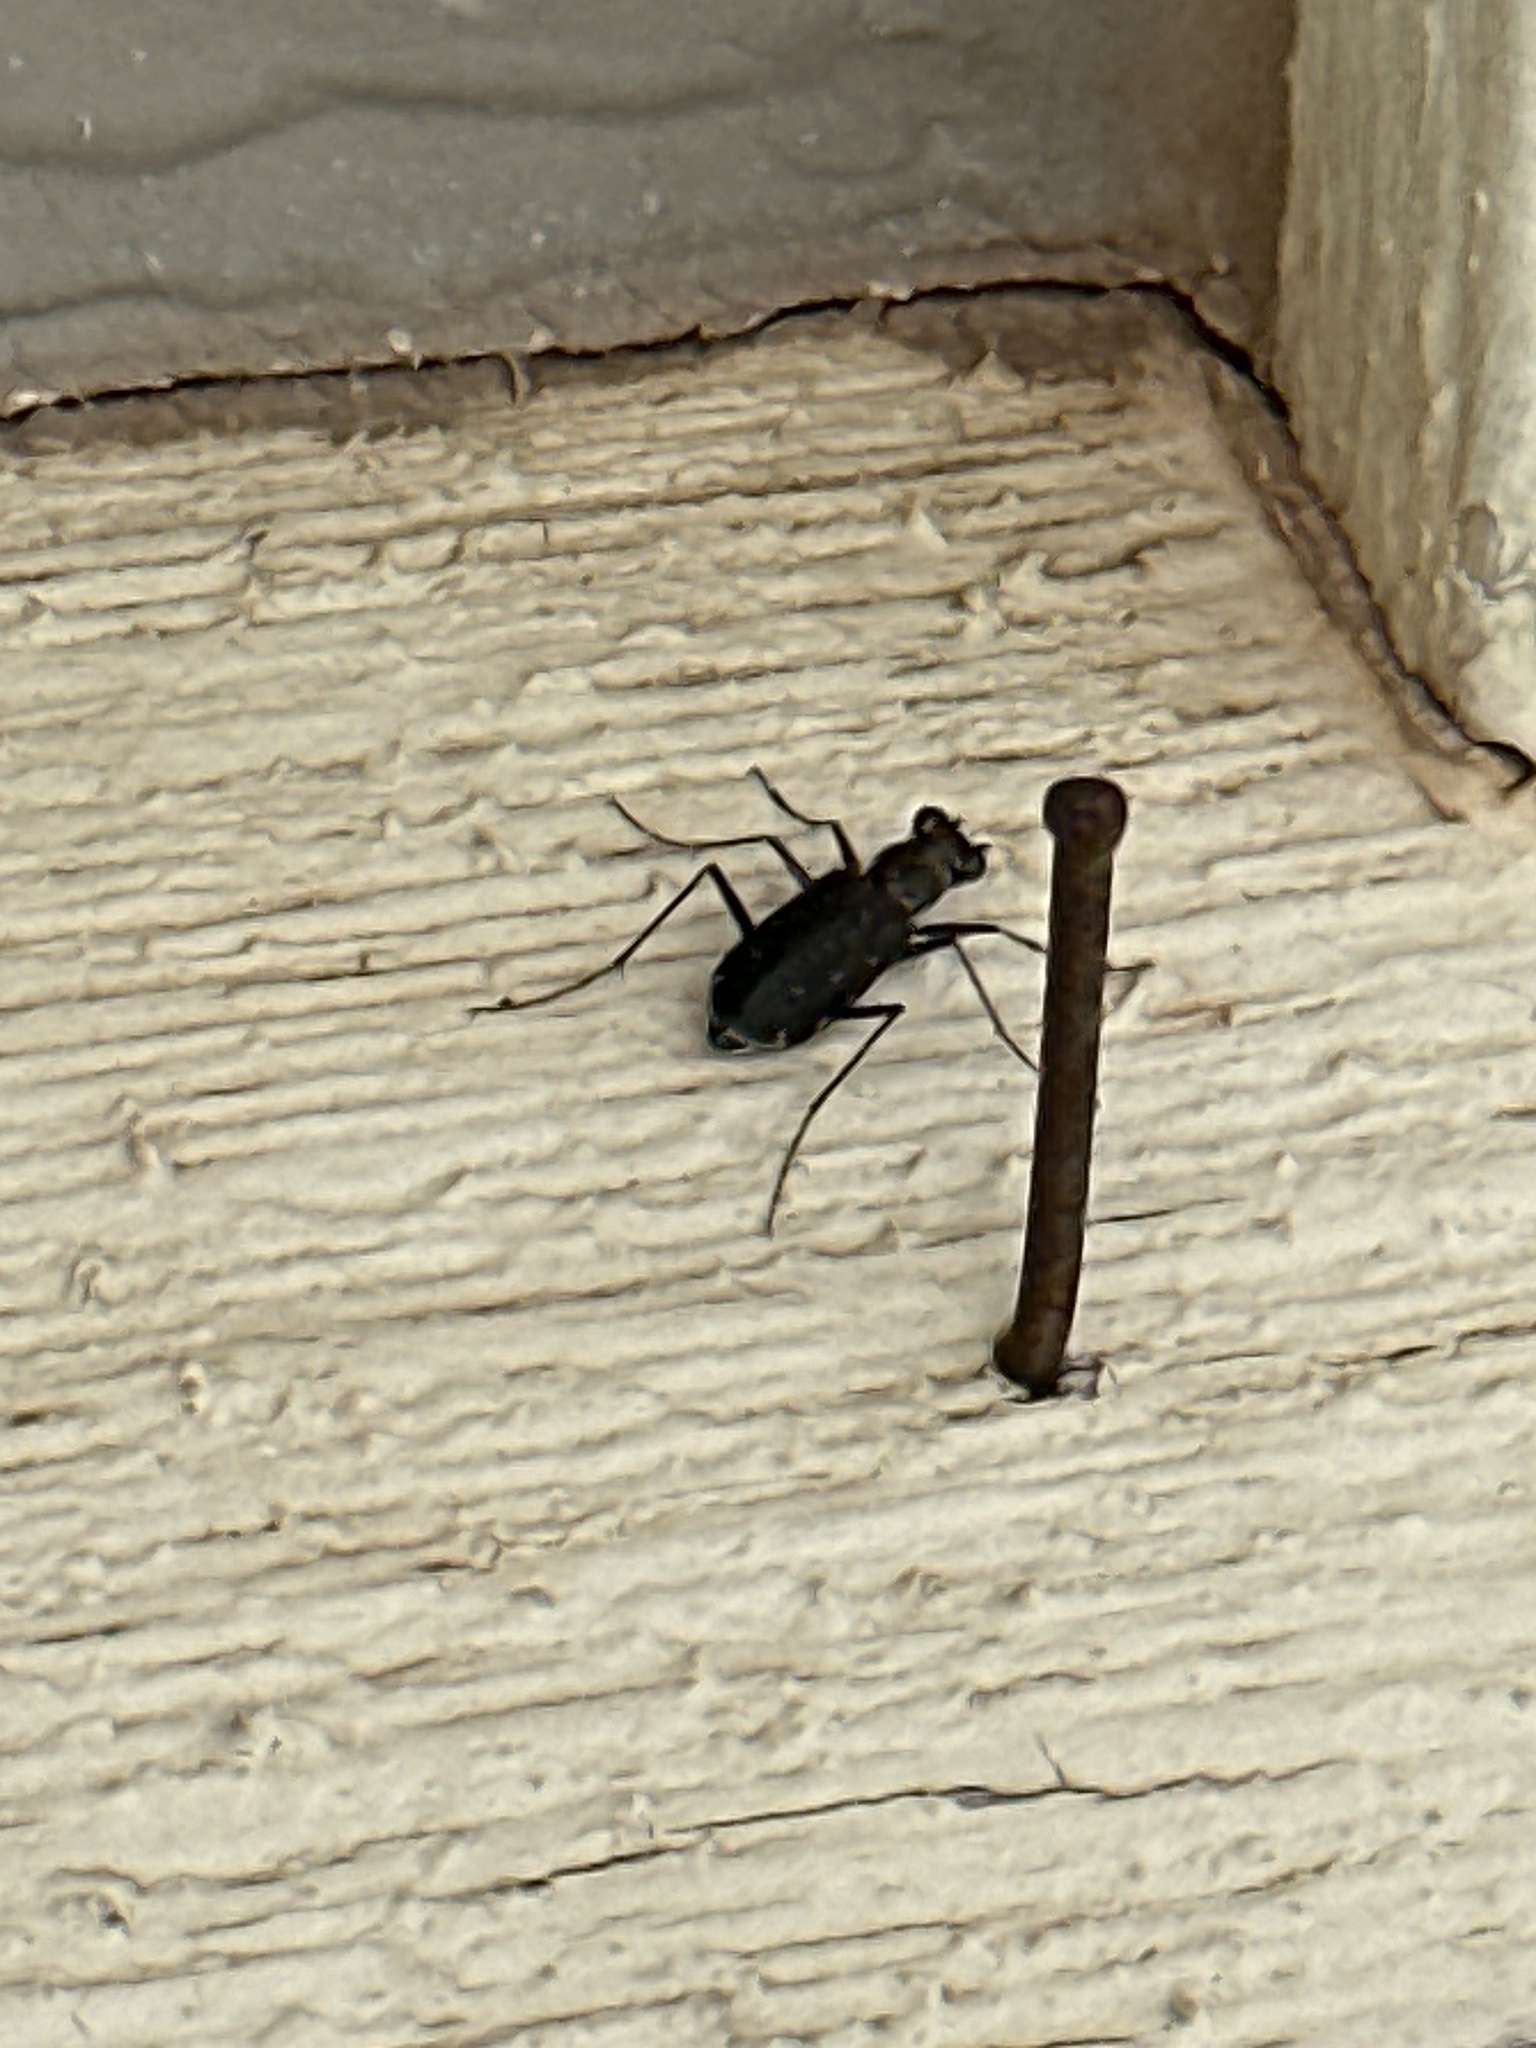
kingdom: Animalia
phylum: Arthropoda
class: Insecta
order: Coleoptera
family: Carabidae
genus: Cicindela
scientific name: Cicindela punctulata
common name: Punctured tiger beetle
